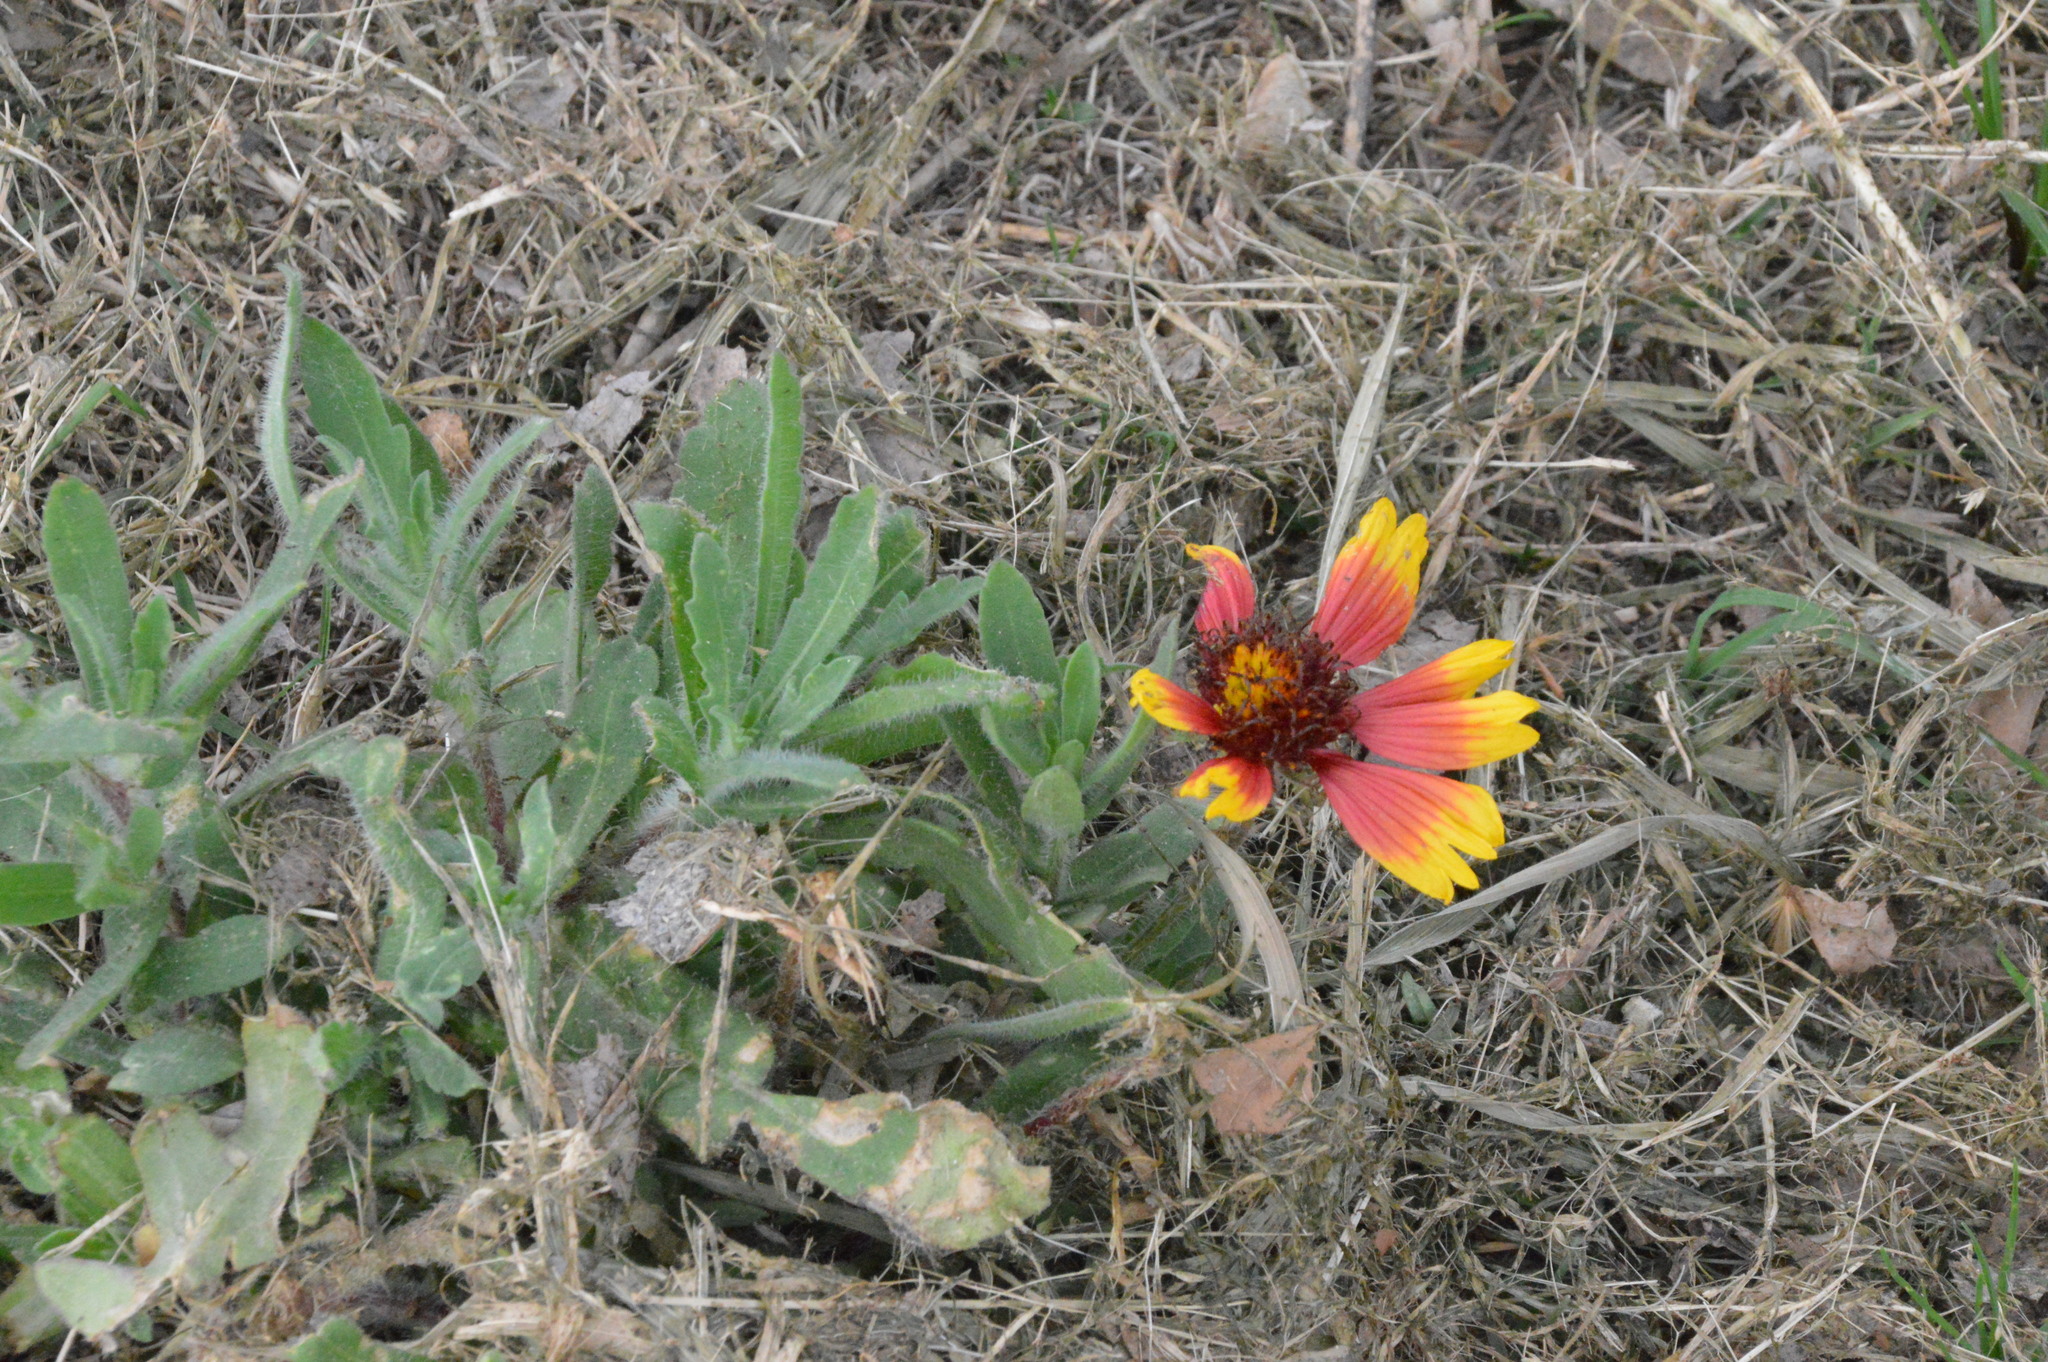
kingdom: Plantae
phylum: Tracheophyta
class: Magnoliopsida
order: Asterales
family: Asteraceae
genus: Gaillardia
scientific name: Gaillardia pulchella
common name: Firewheel
